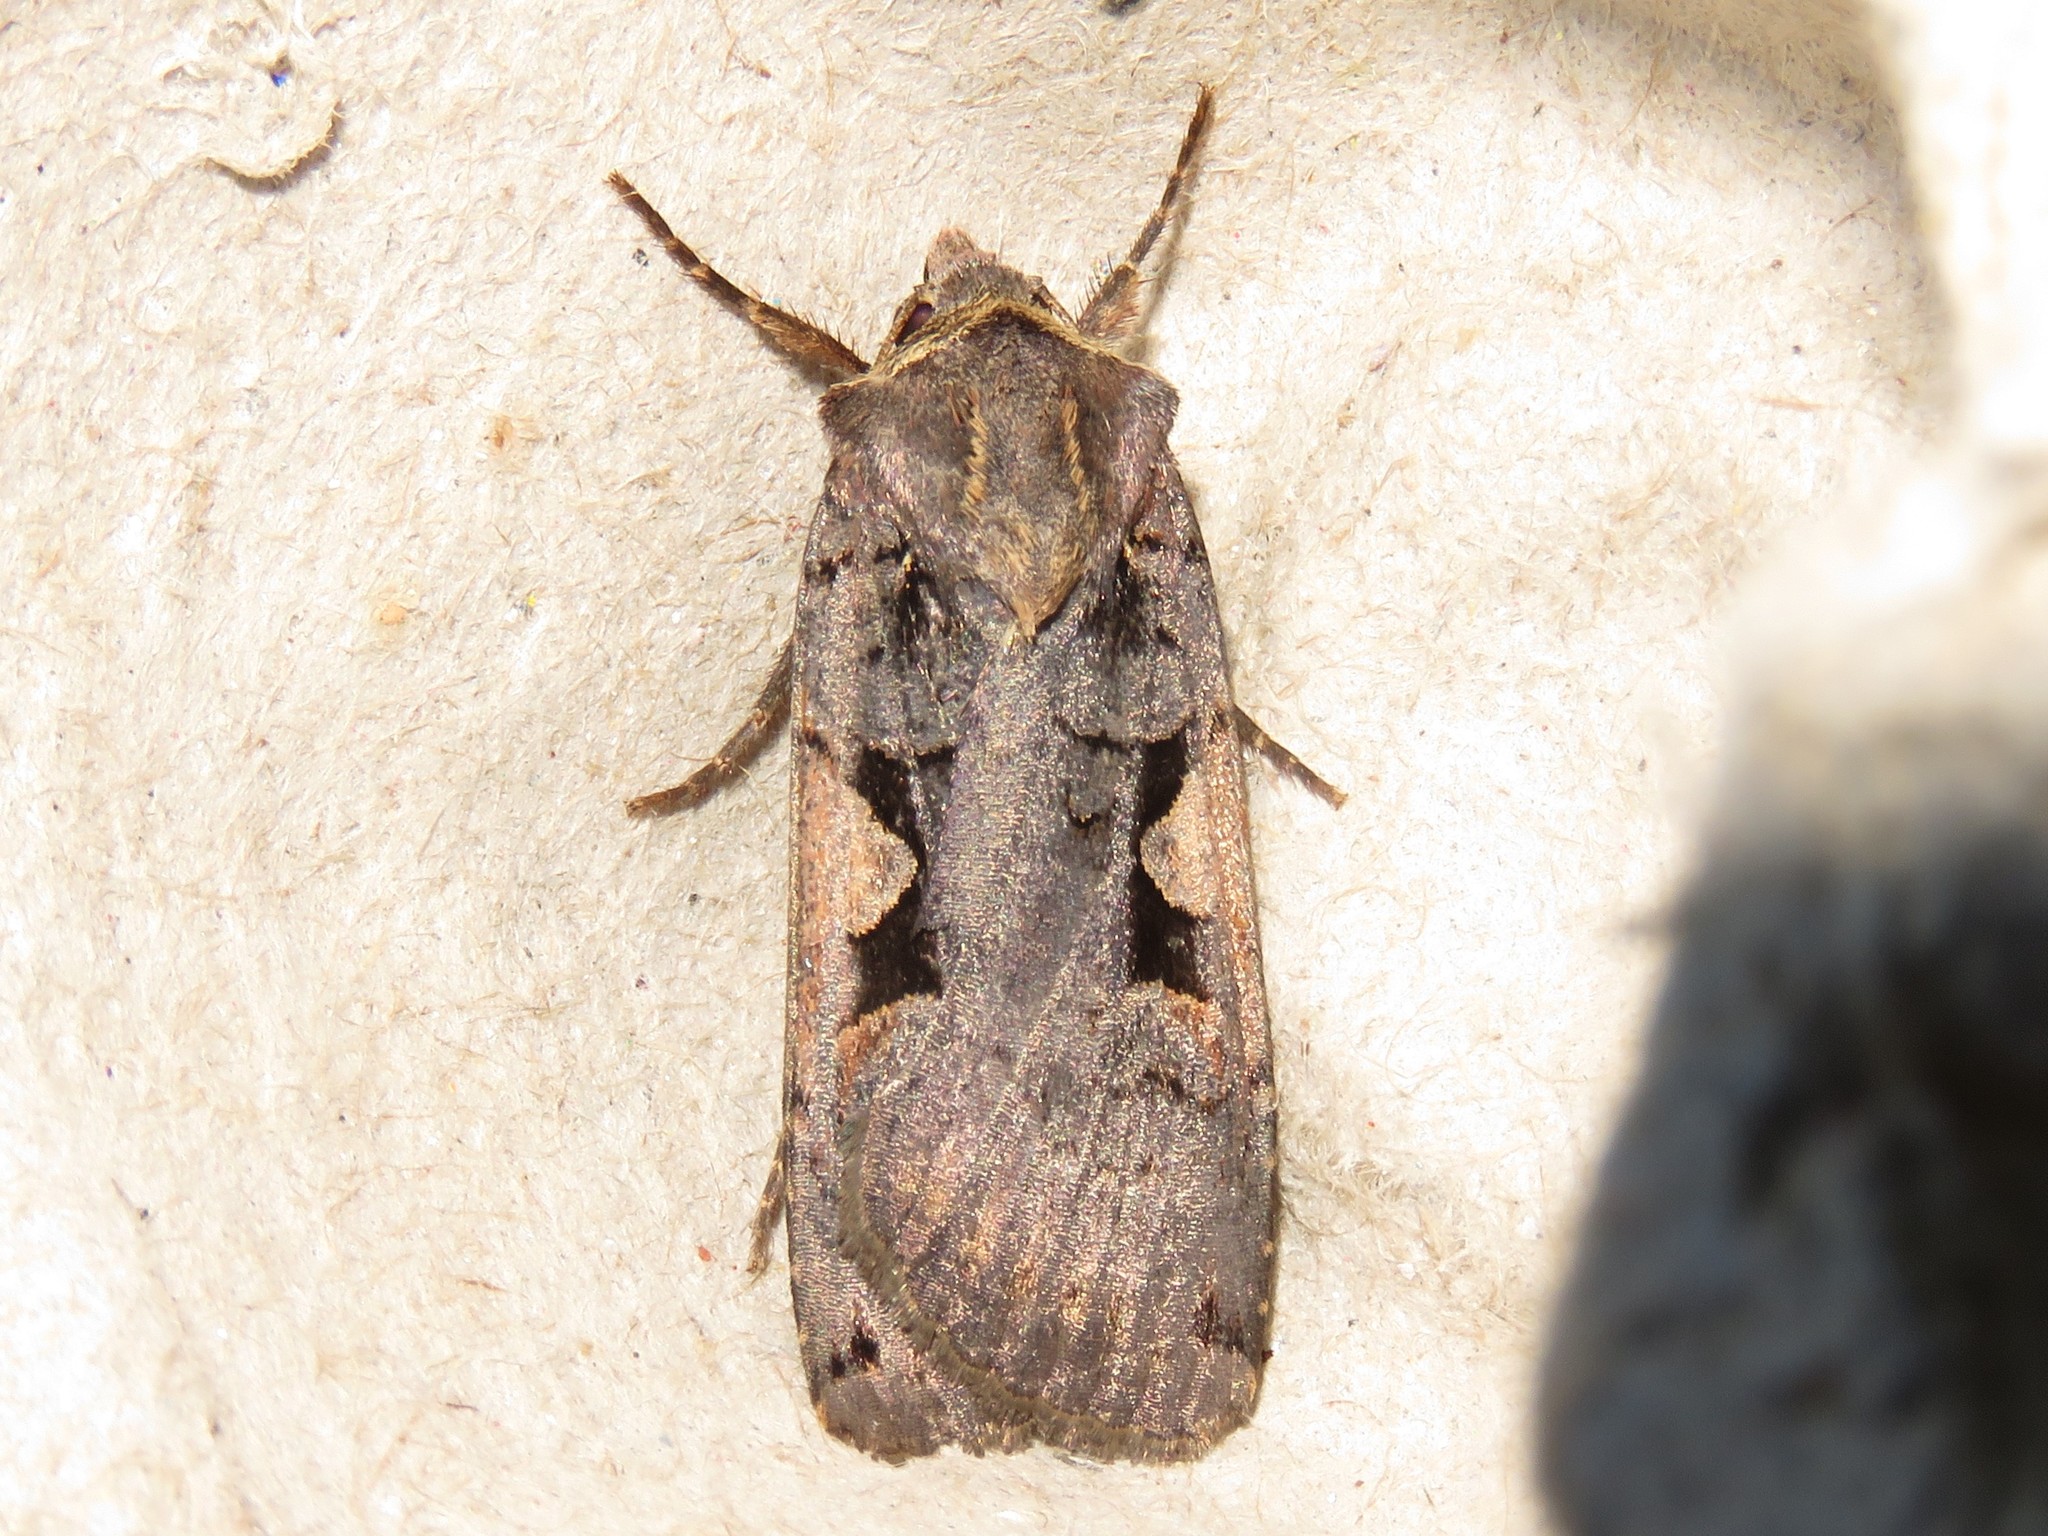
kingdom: Animalia
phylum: Arthropoda
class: Insecta
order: Lepidoptera
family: Noctuidae
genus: Xestia
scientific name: Xestia
